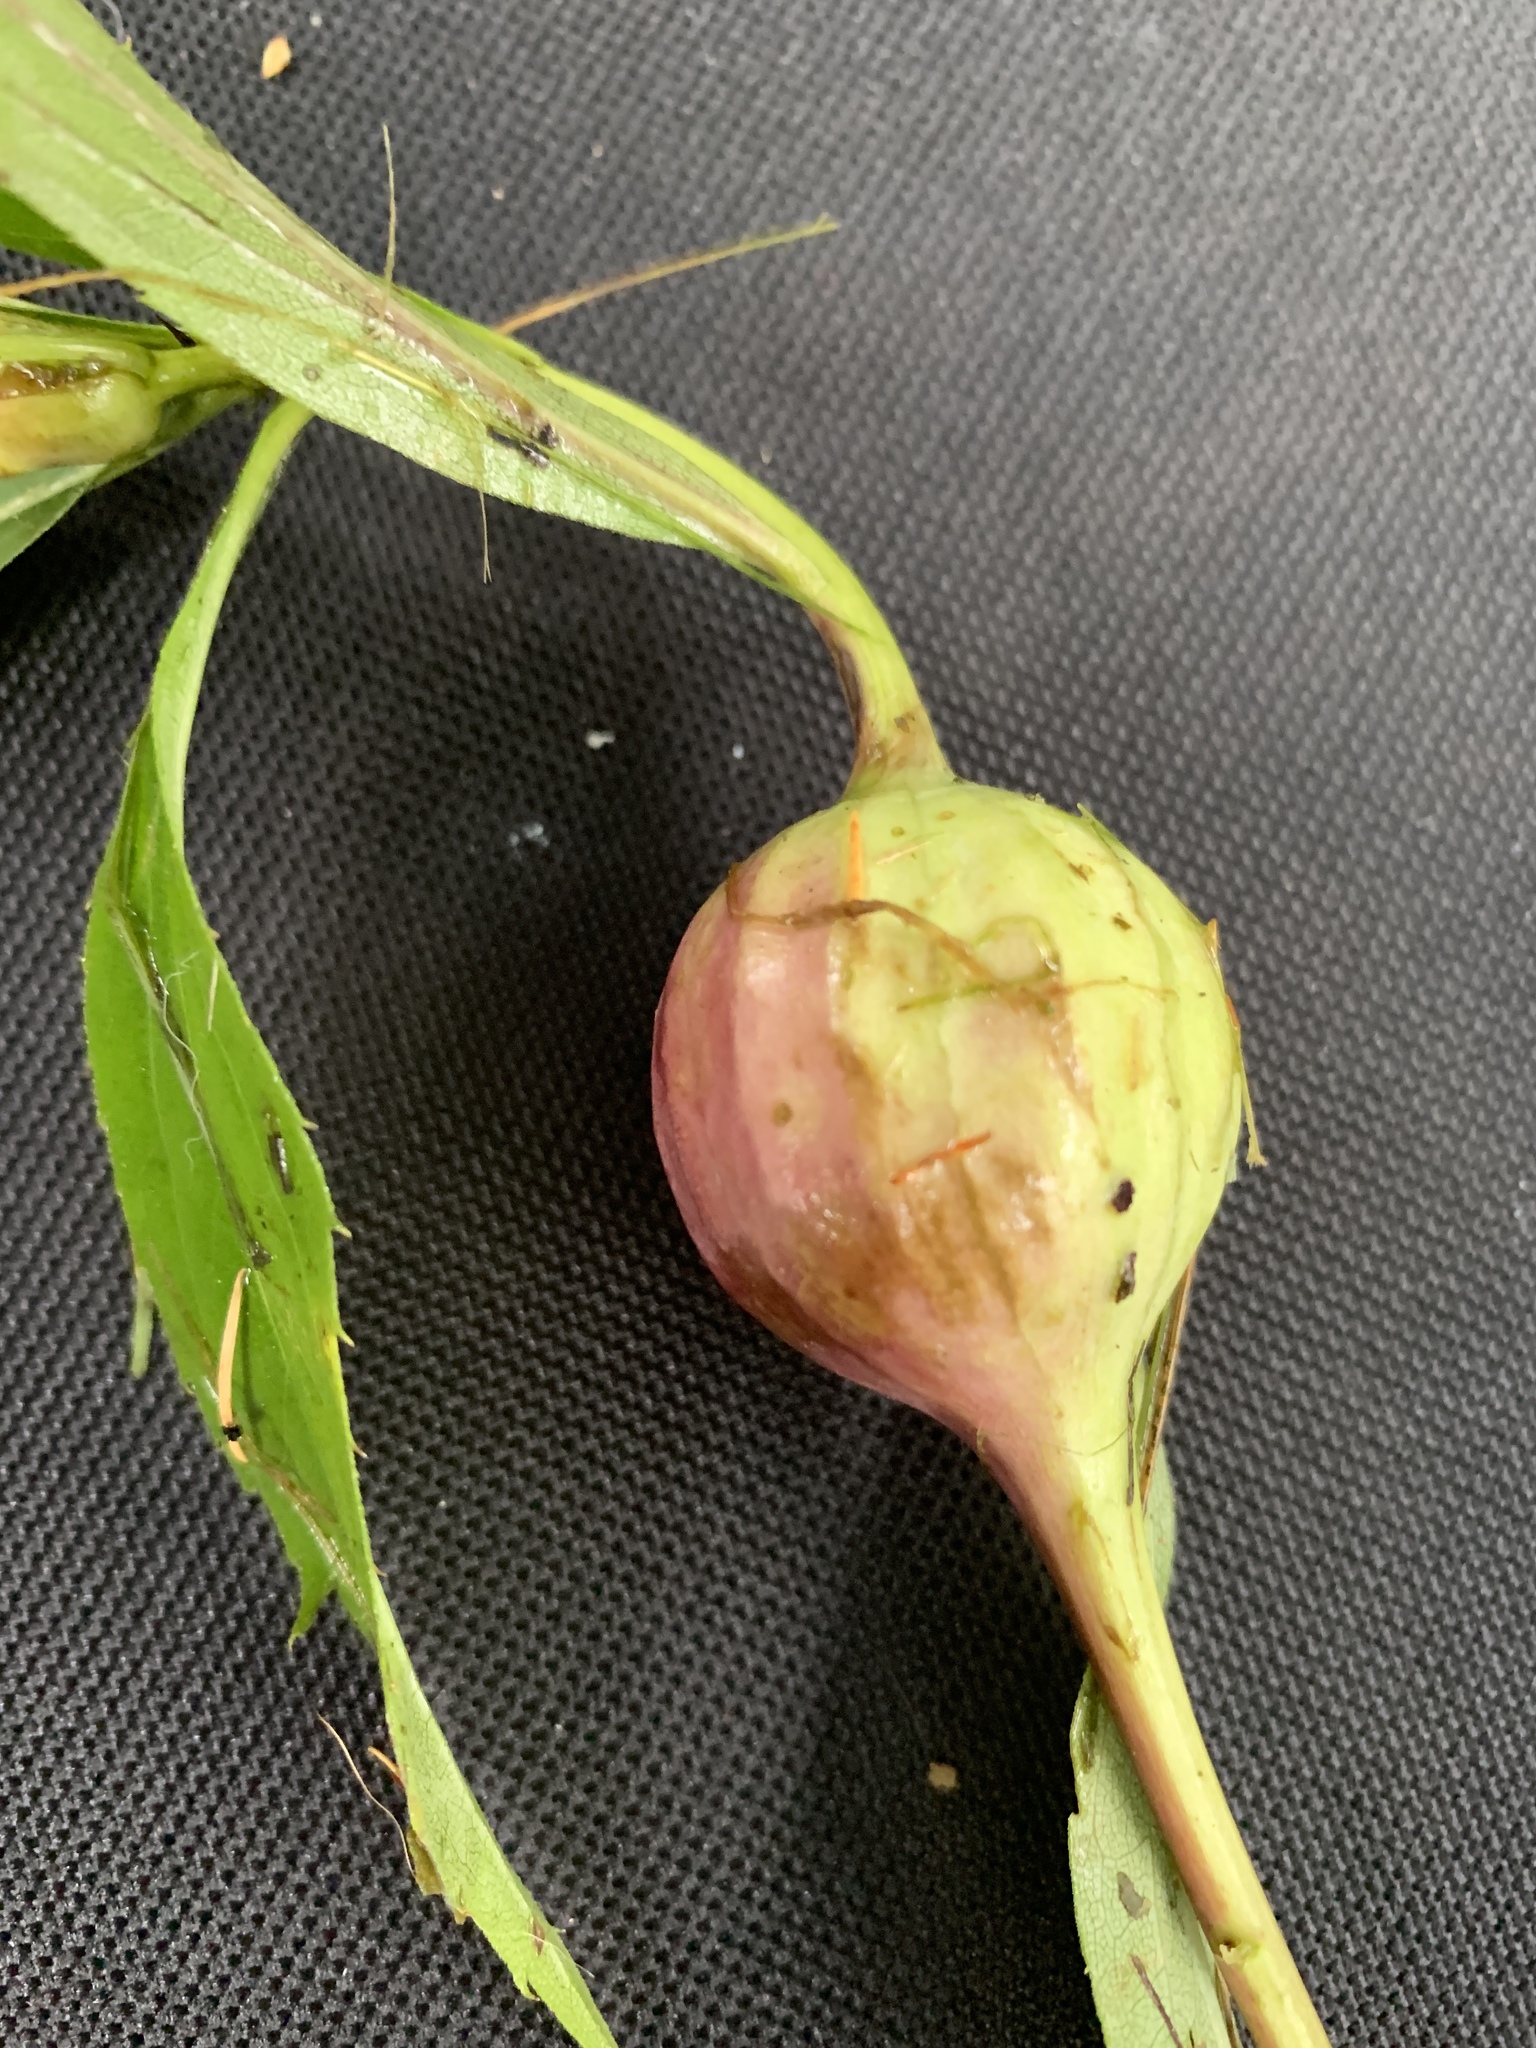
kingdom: Animalia
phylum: Arthropoda
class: Insecta
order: Diptera
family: Tephritidae
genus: Eurosta
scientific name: Eurosta solidaginis
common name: Goldenrod gall fly
